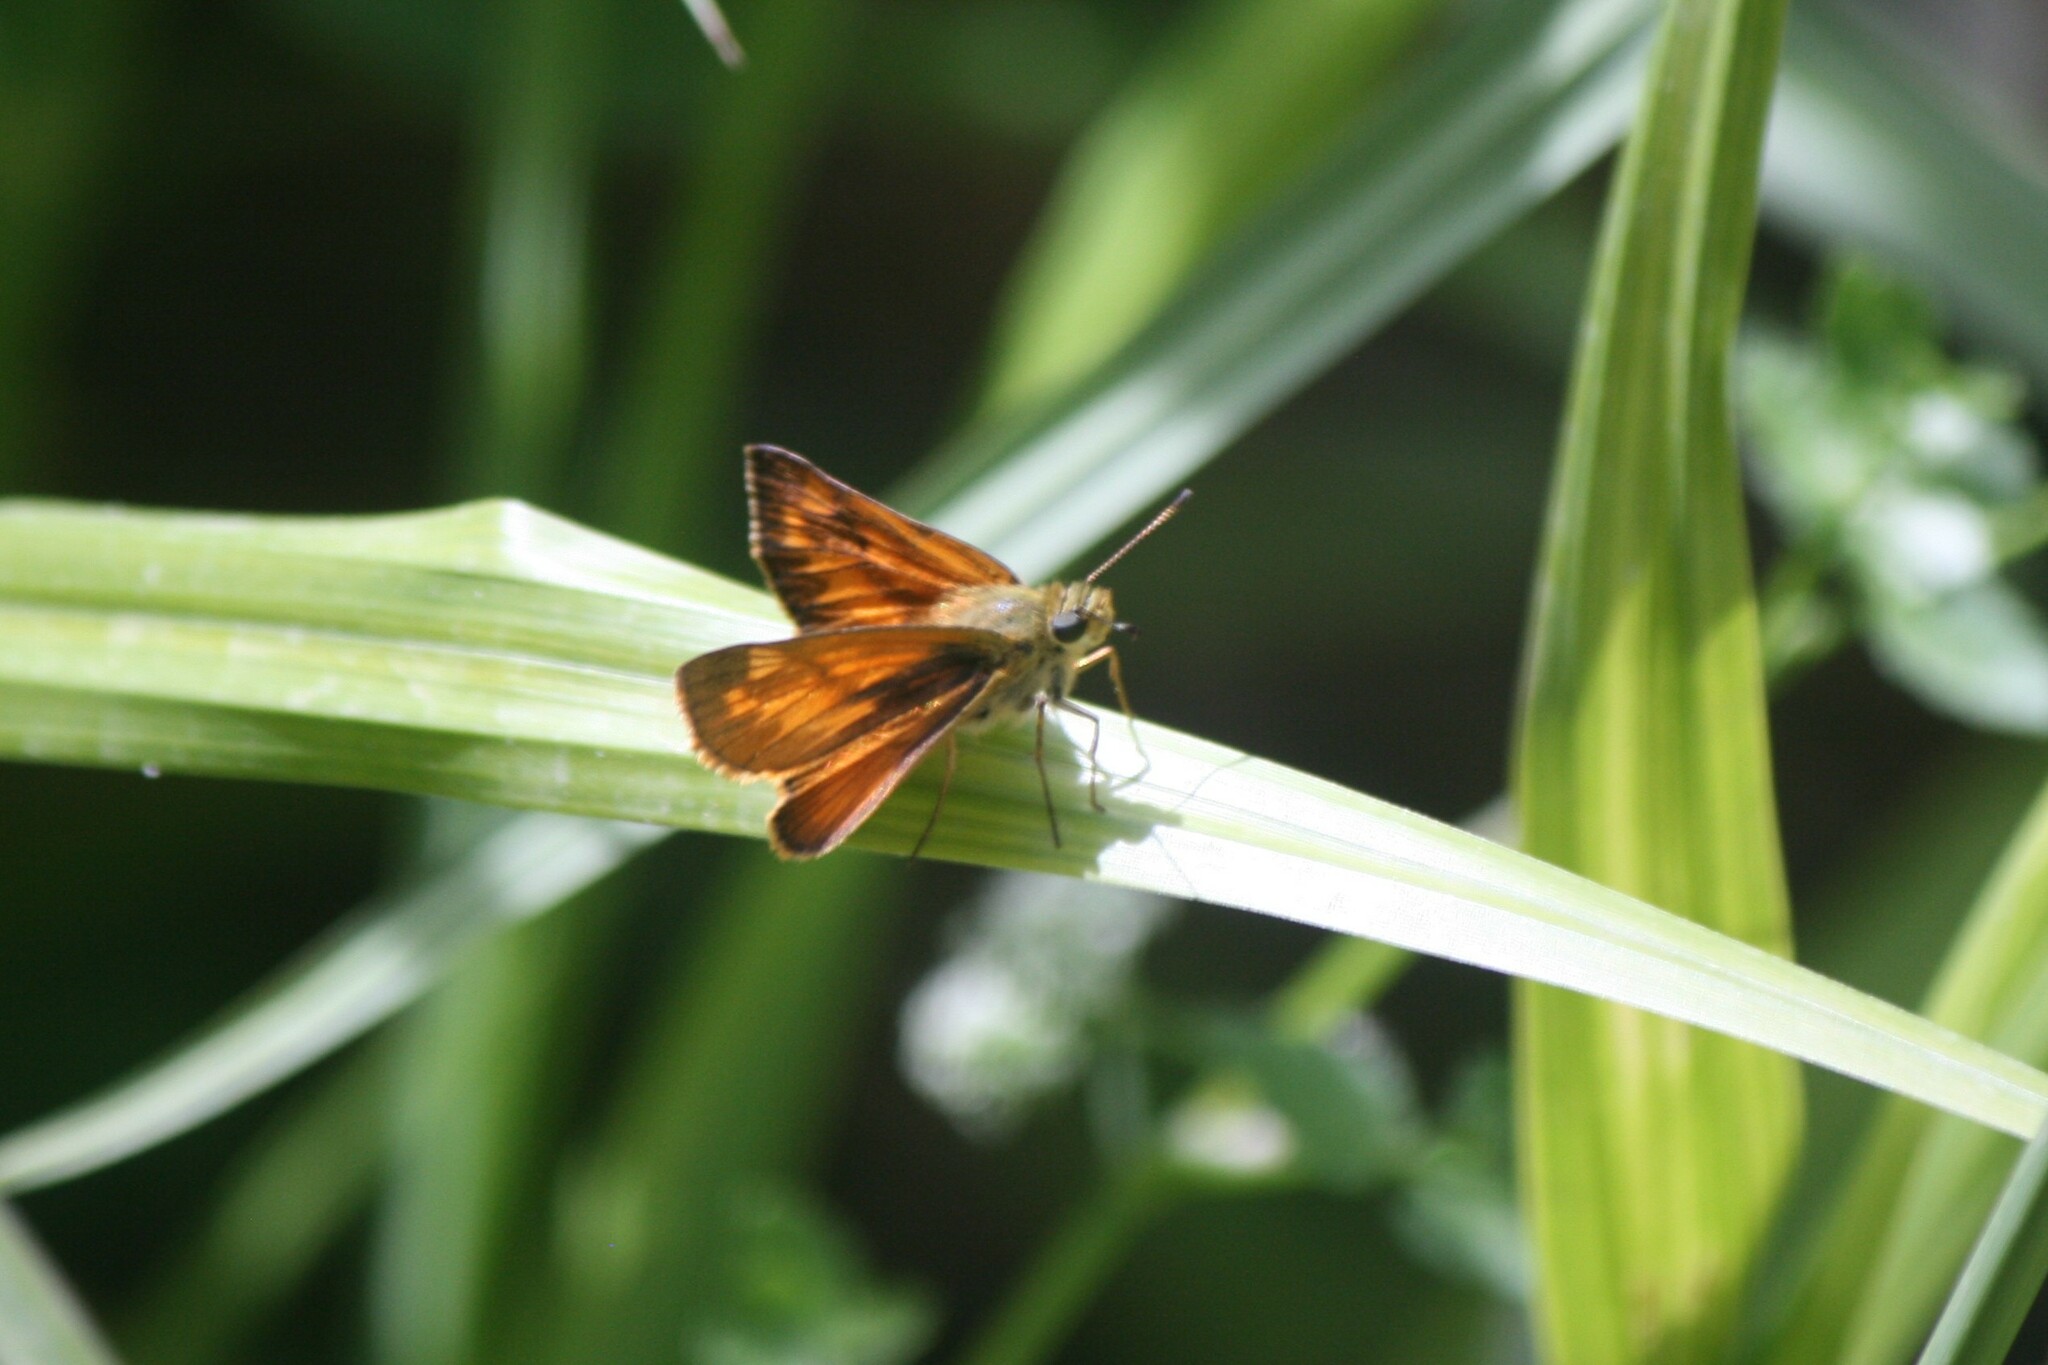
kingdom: Animalia
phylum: Arthropoda
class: Insecta
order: Lepidoptera
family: Hesperiidae
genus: Ochlodes
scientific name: Ochlodes venata
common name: Large skipper
